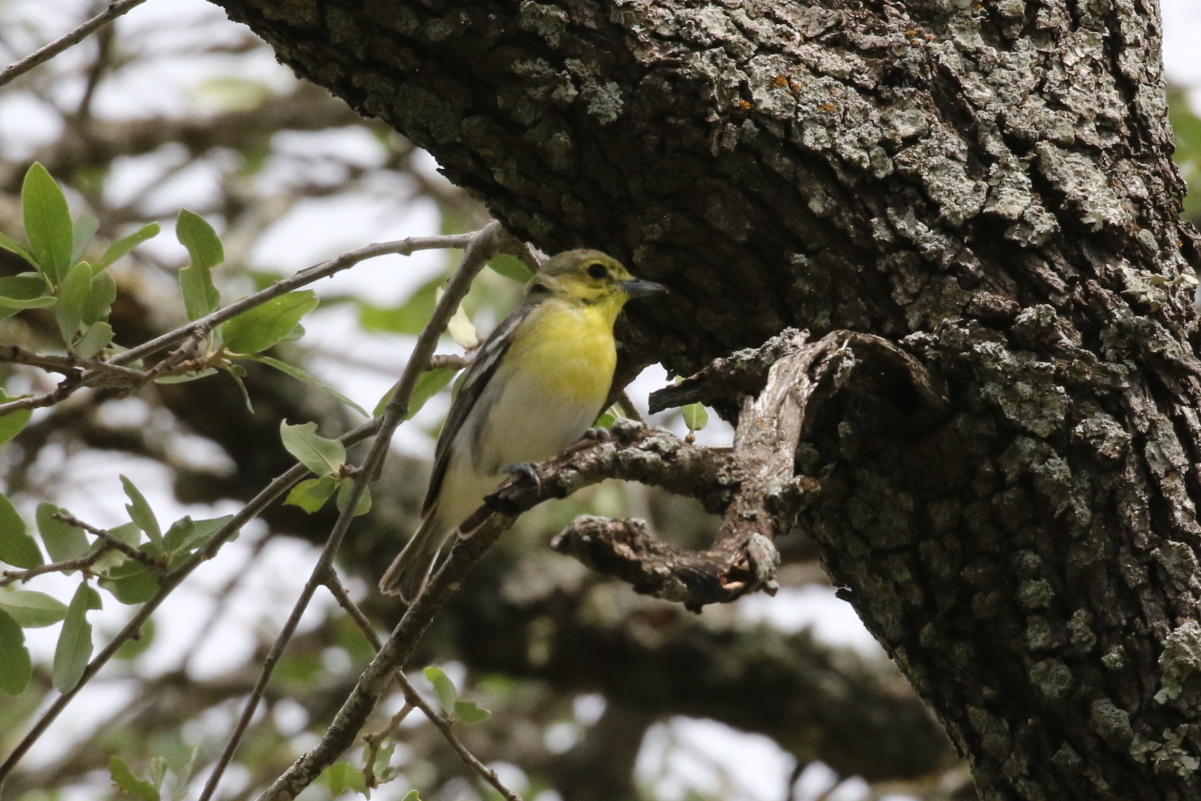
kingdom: Animalia
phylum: Chordata
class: Aves
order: Passeriformes
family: Vireonidae
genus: Vireo
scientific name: Vireo flavifrons
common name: Yellow-throated vireo
